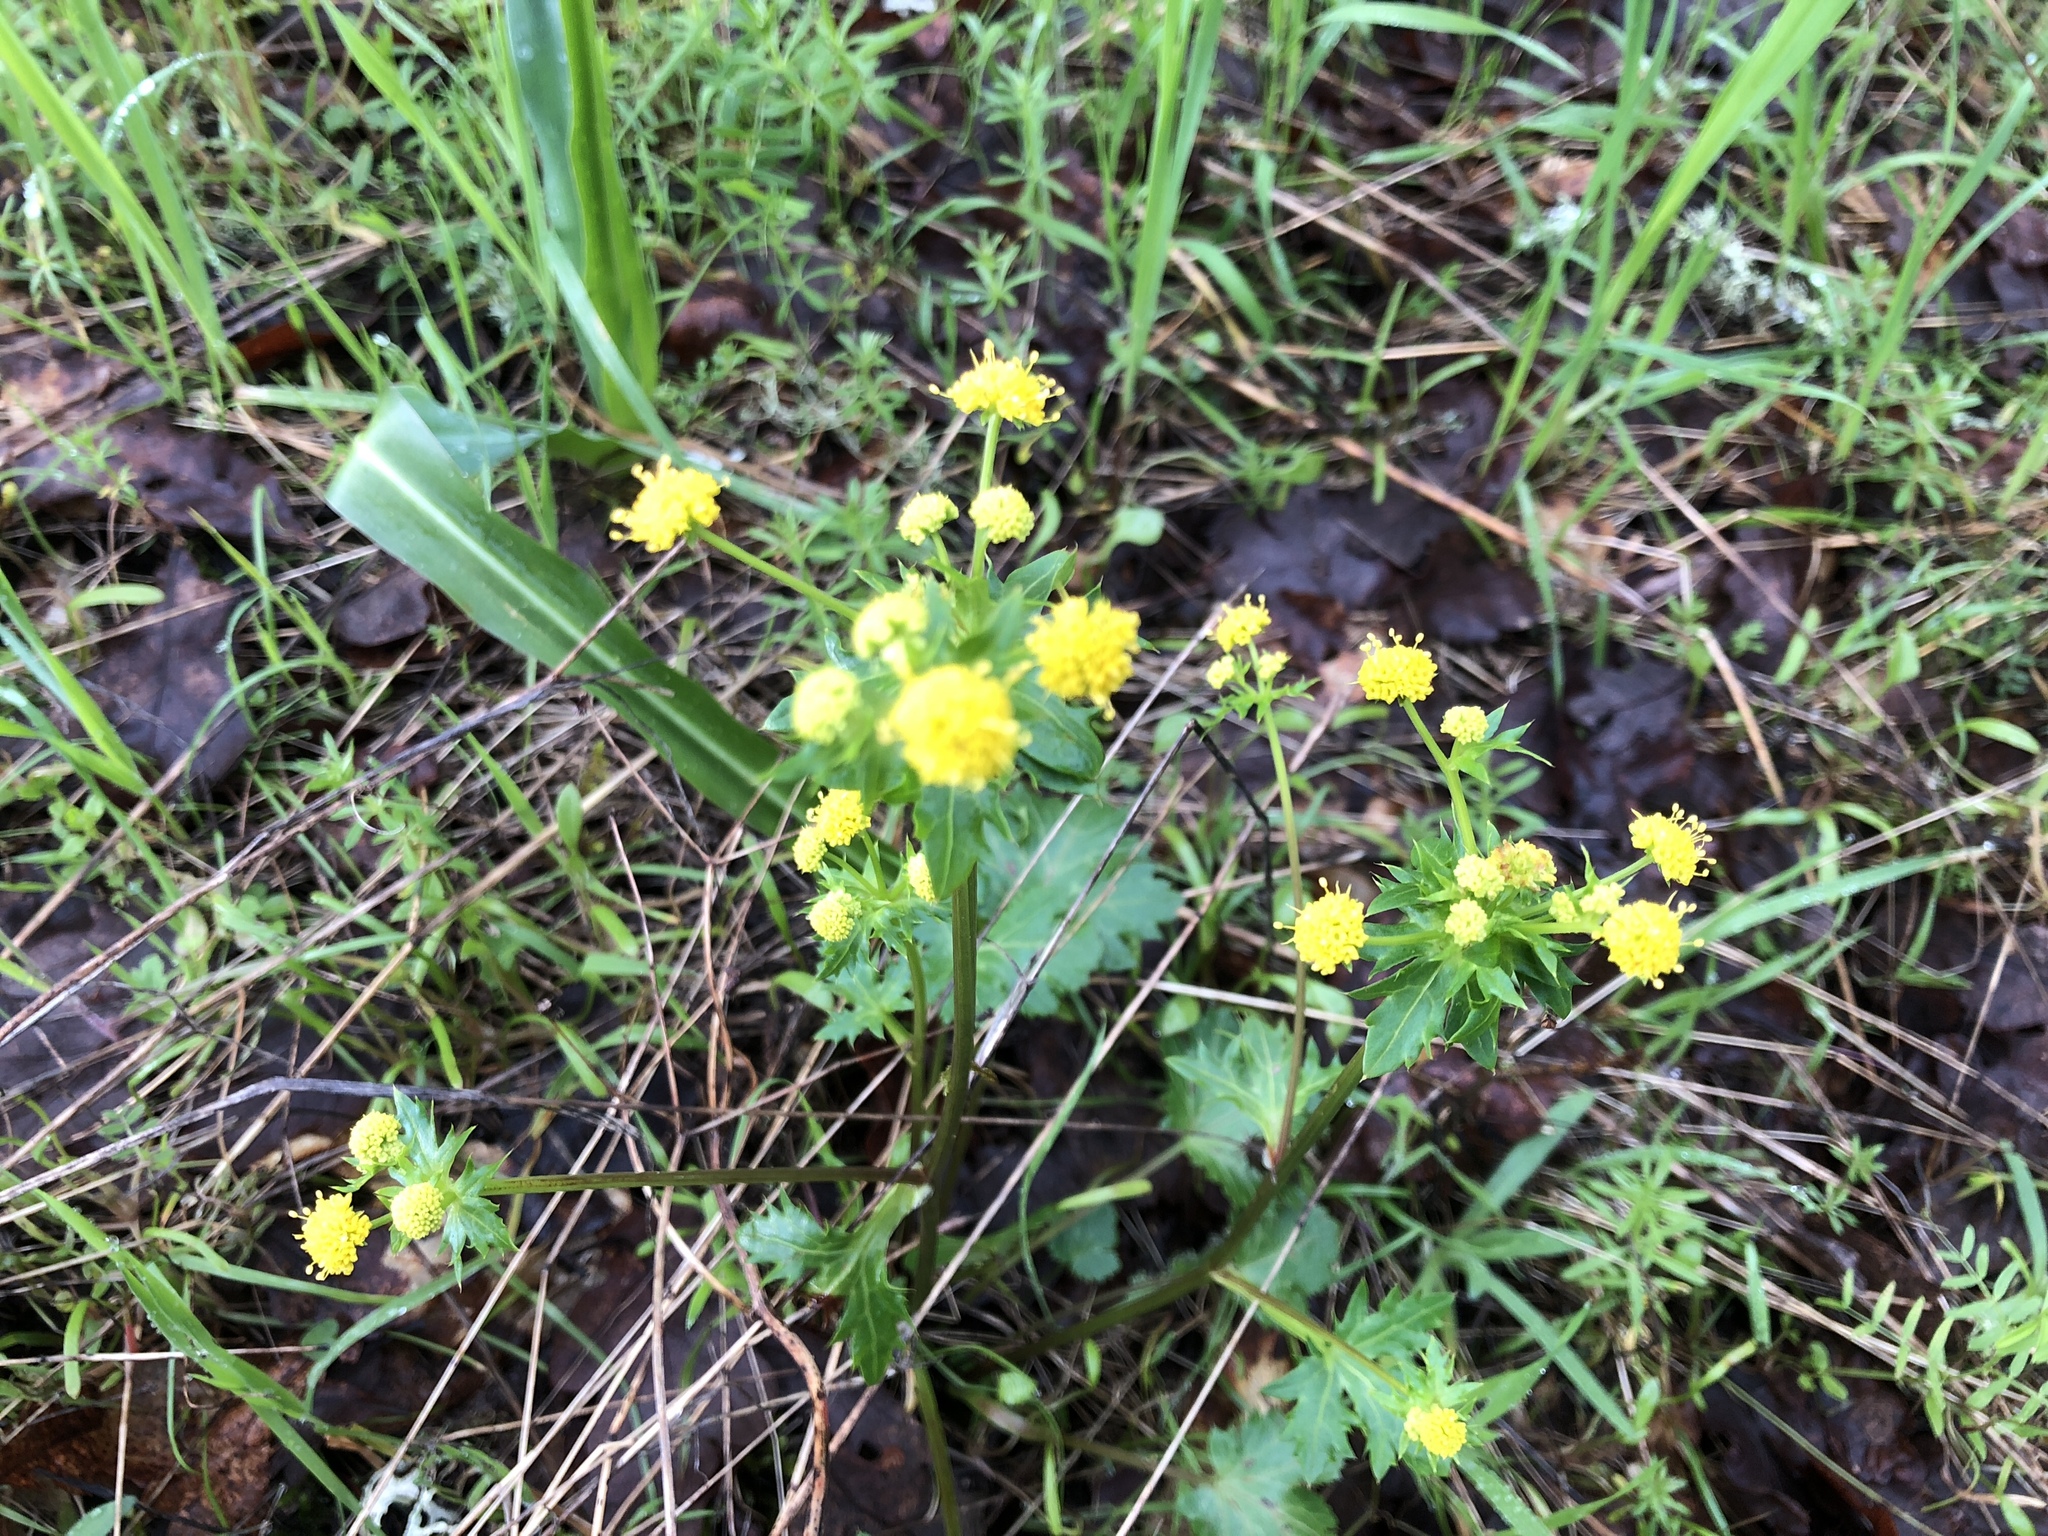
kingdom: Plantae
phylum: Tracheophyta
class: Magnoliopsida
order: Apiales
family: Apiaceae
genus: Sanicula
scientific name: Sanicula crassicaulis
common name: Western snakeroot
